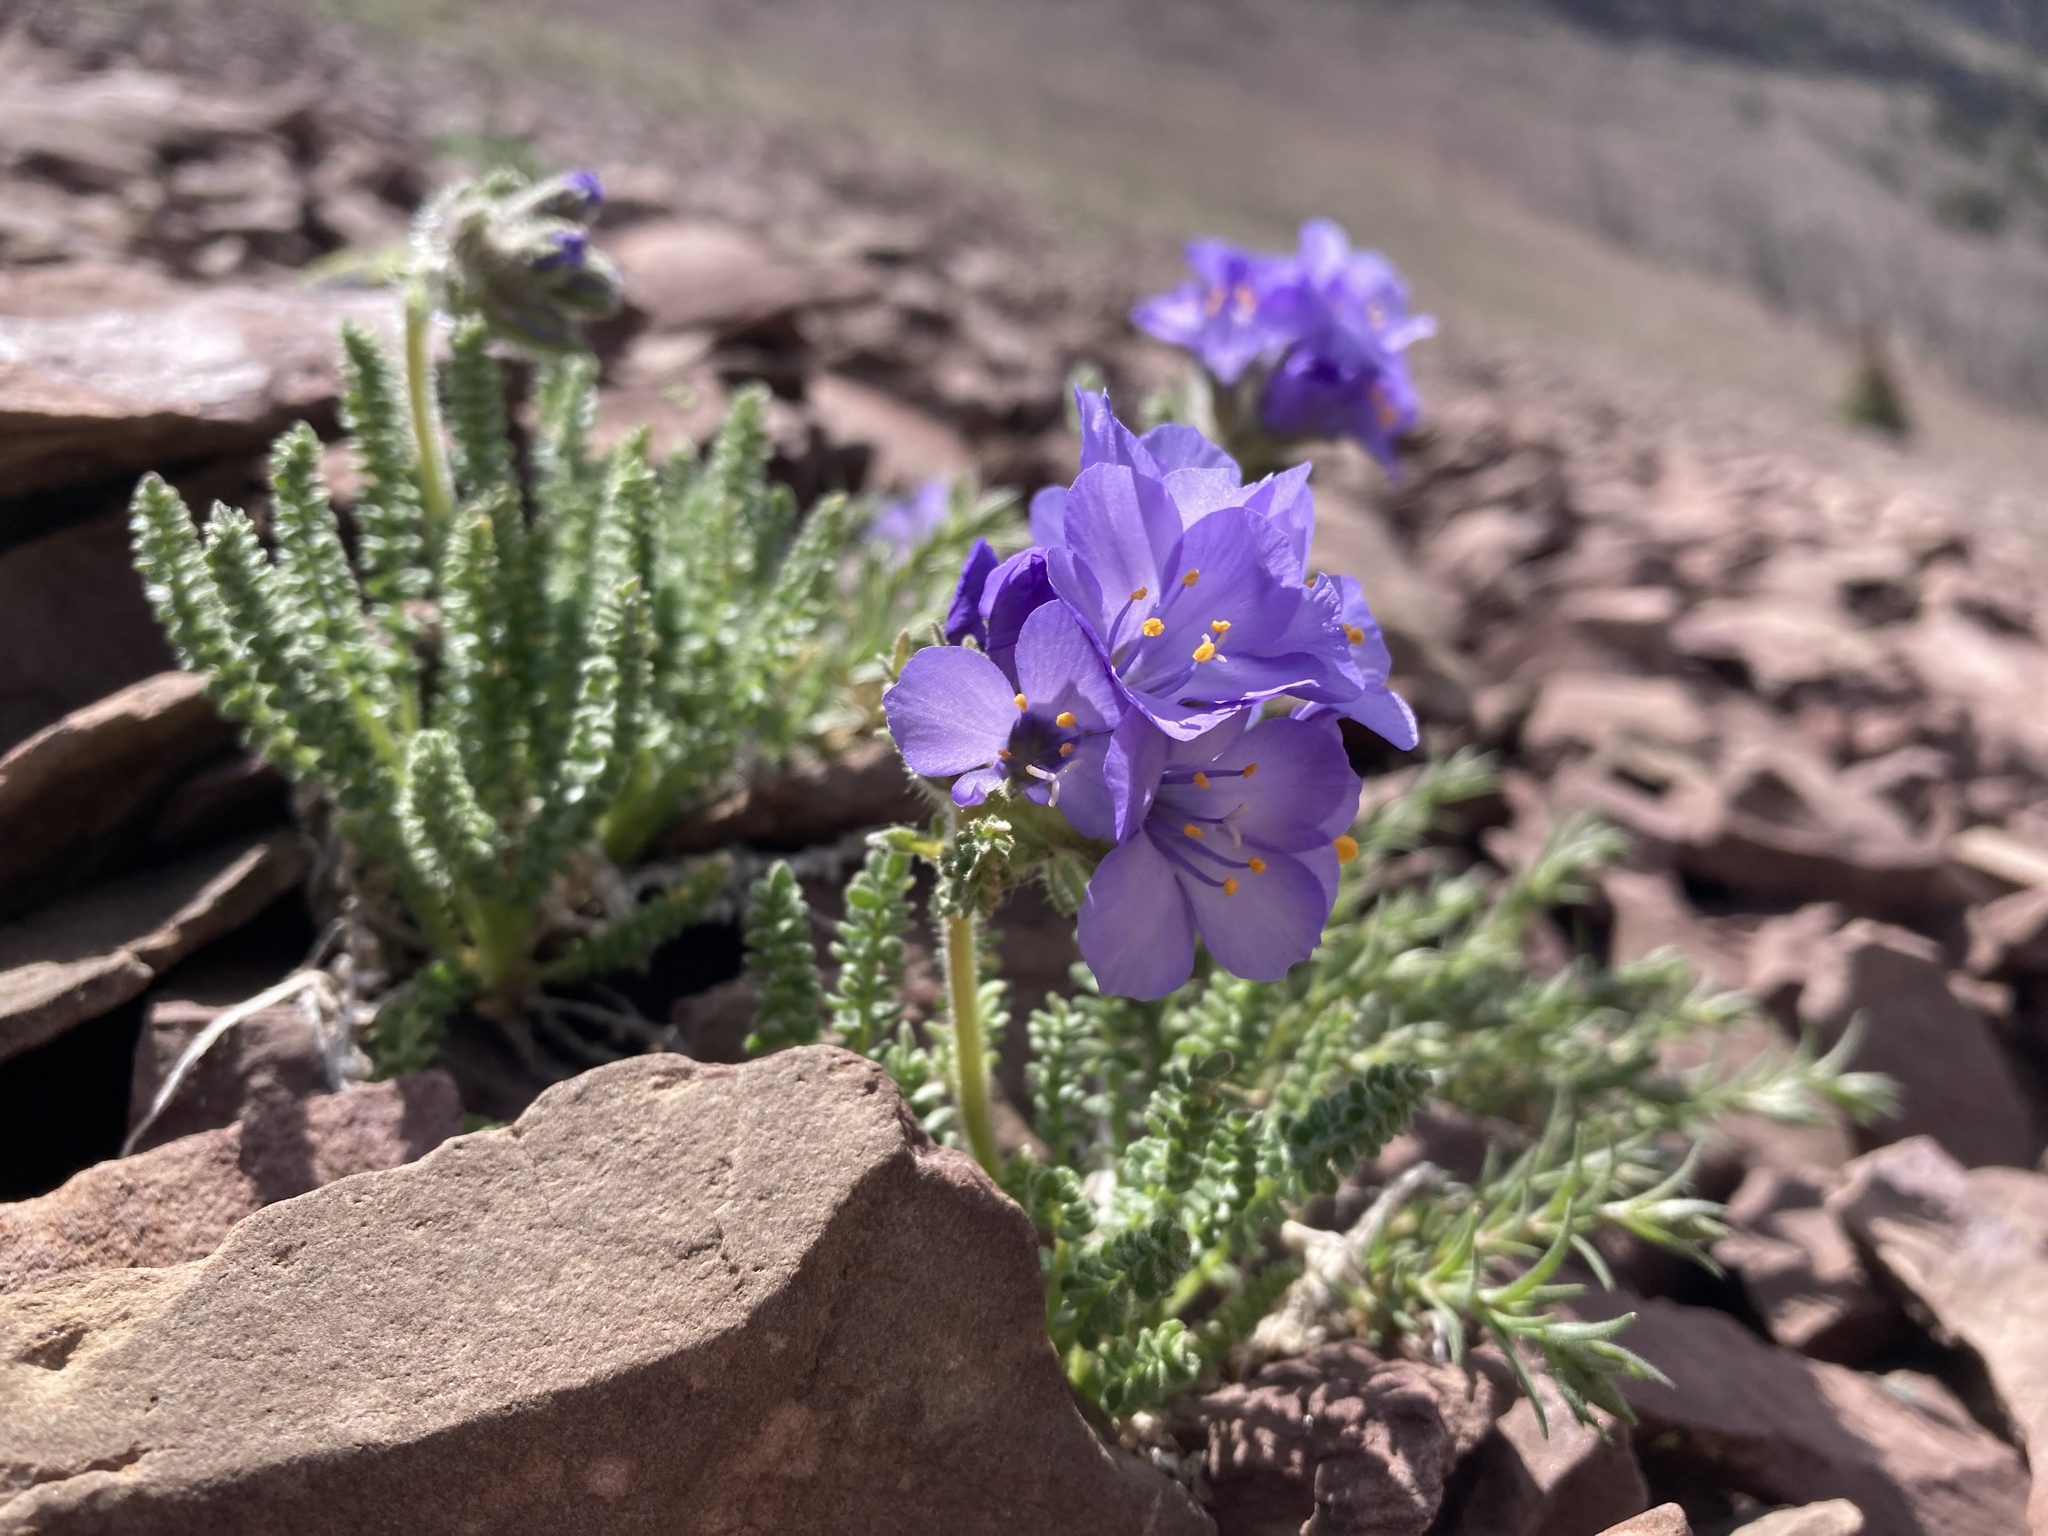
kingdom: Plantae
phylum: Tracheophyta
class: Magnoliopsida
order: Ericales
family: Polemoniaceae
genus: Polemonium
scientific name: Polemonium viscosum
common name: Skunk jacob's-ladder
